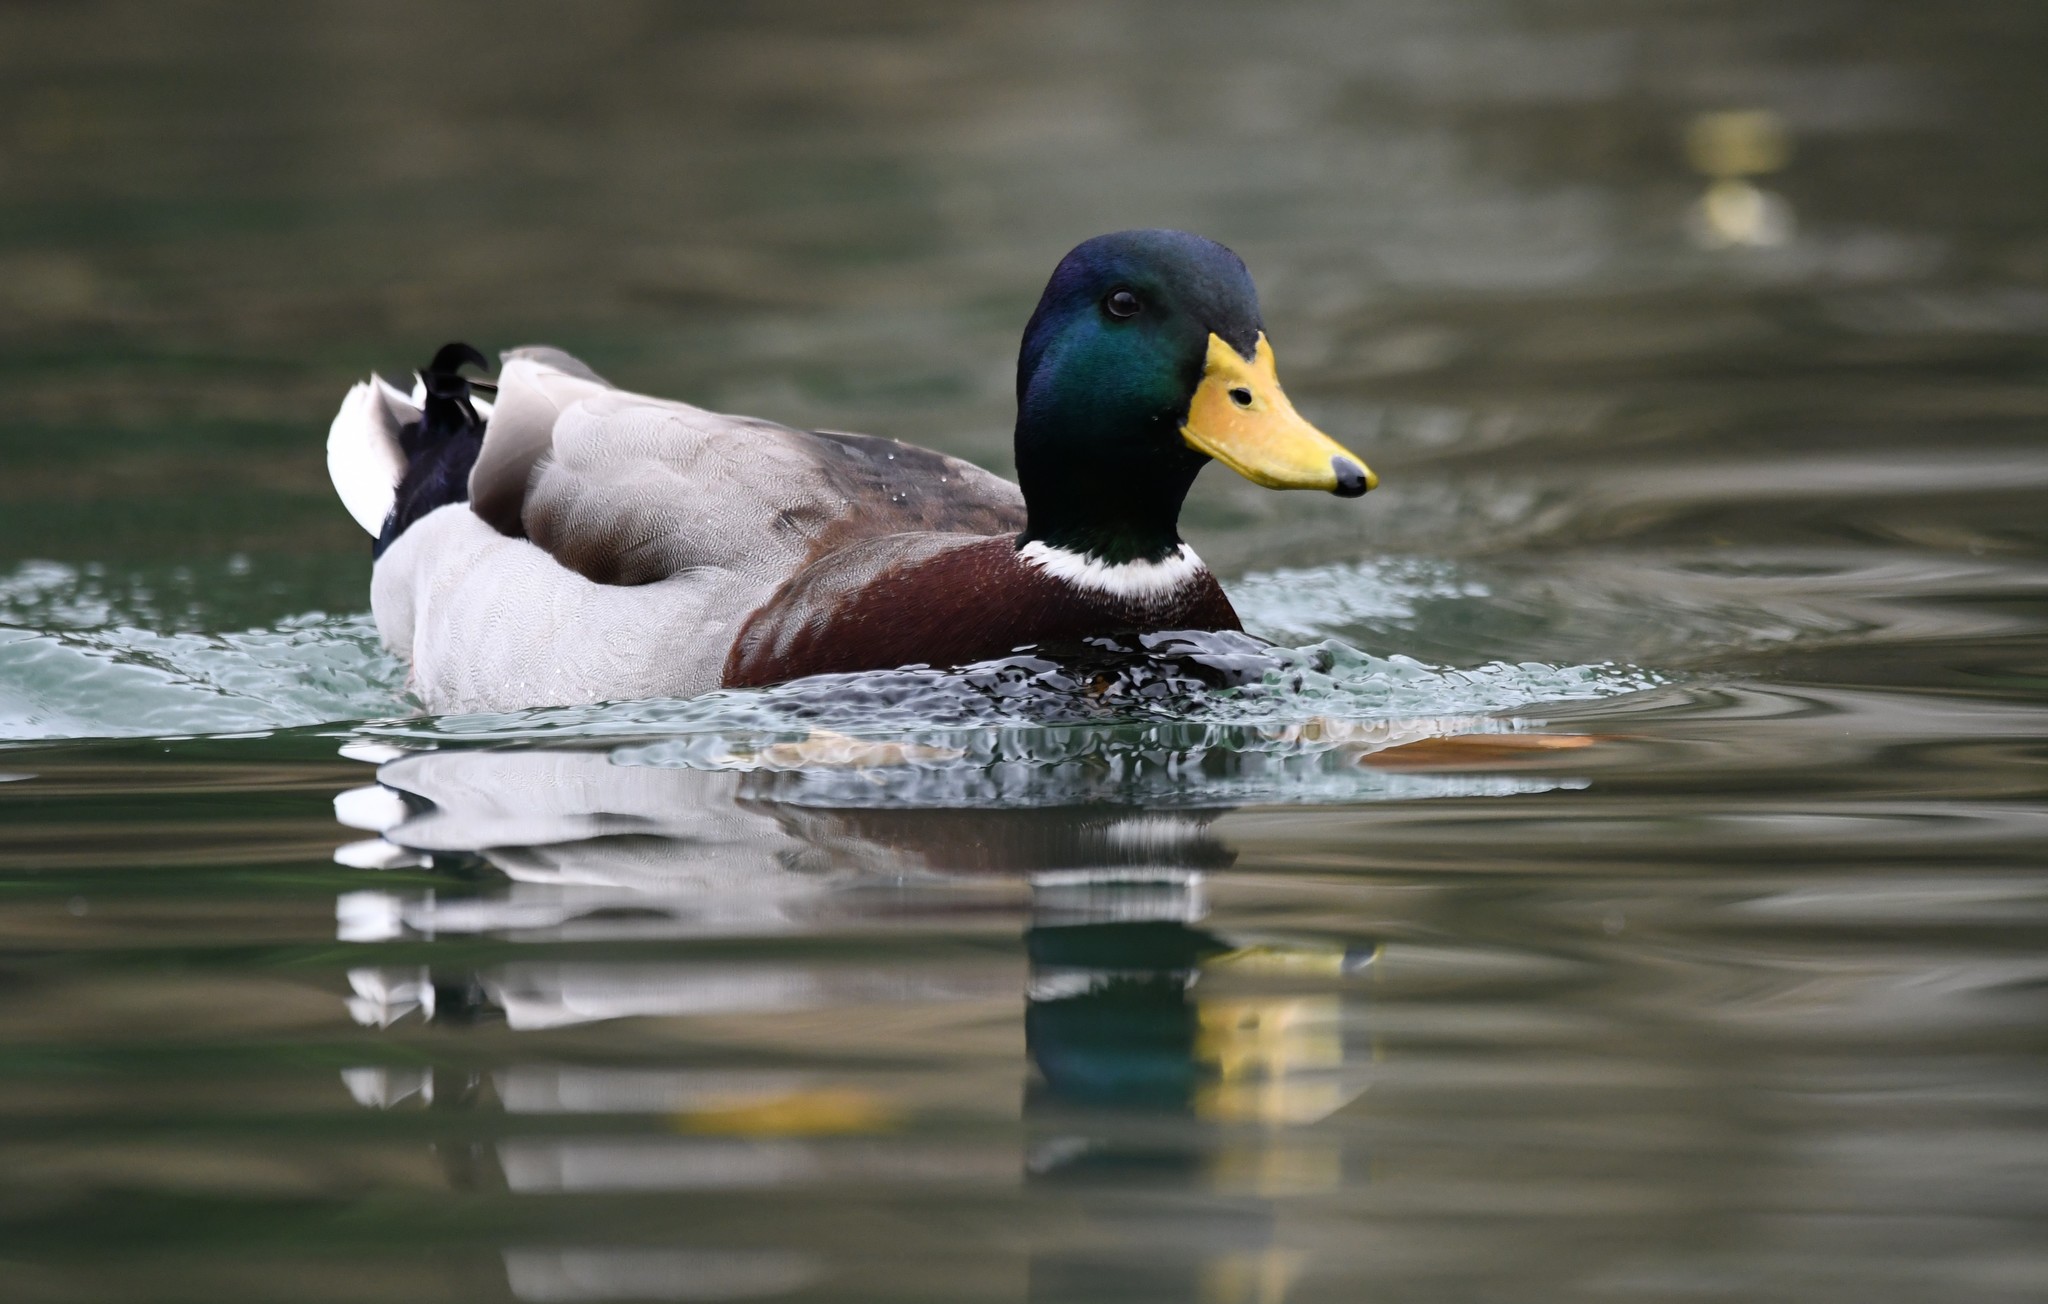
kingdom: Animalia
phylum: Chordata
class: Aves
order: Anseriformes
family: Anatidae
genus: Anas
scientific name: Anas platyrhynchos
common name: Mallard
